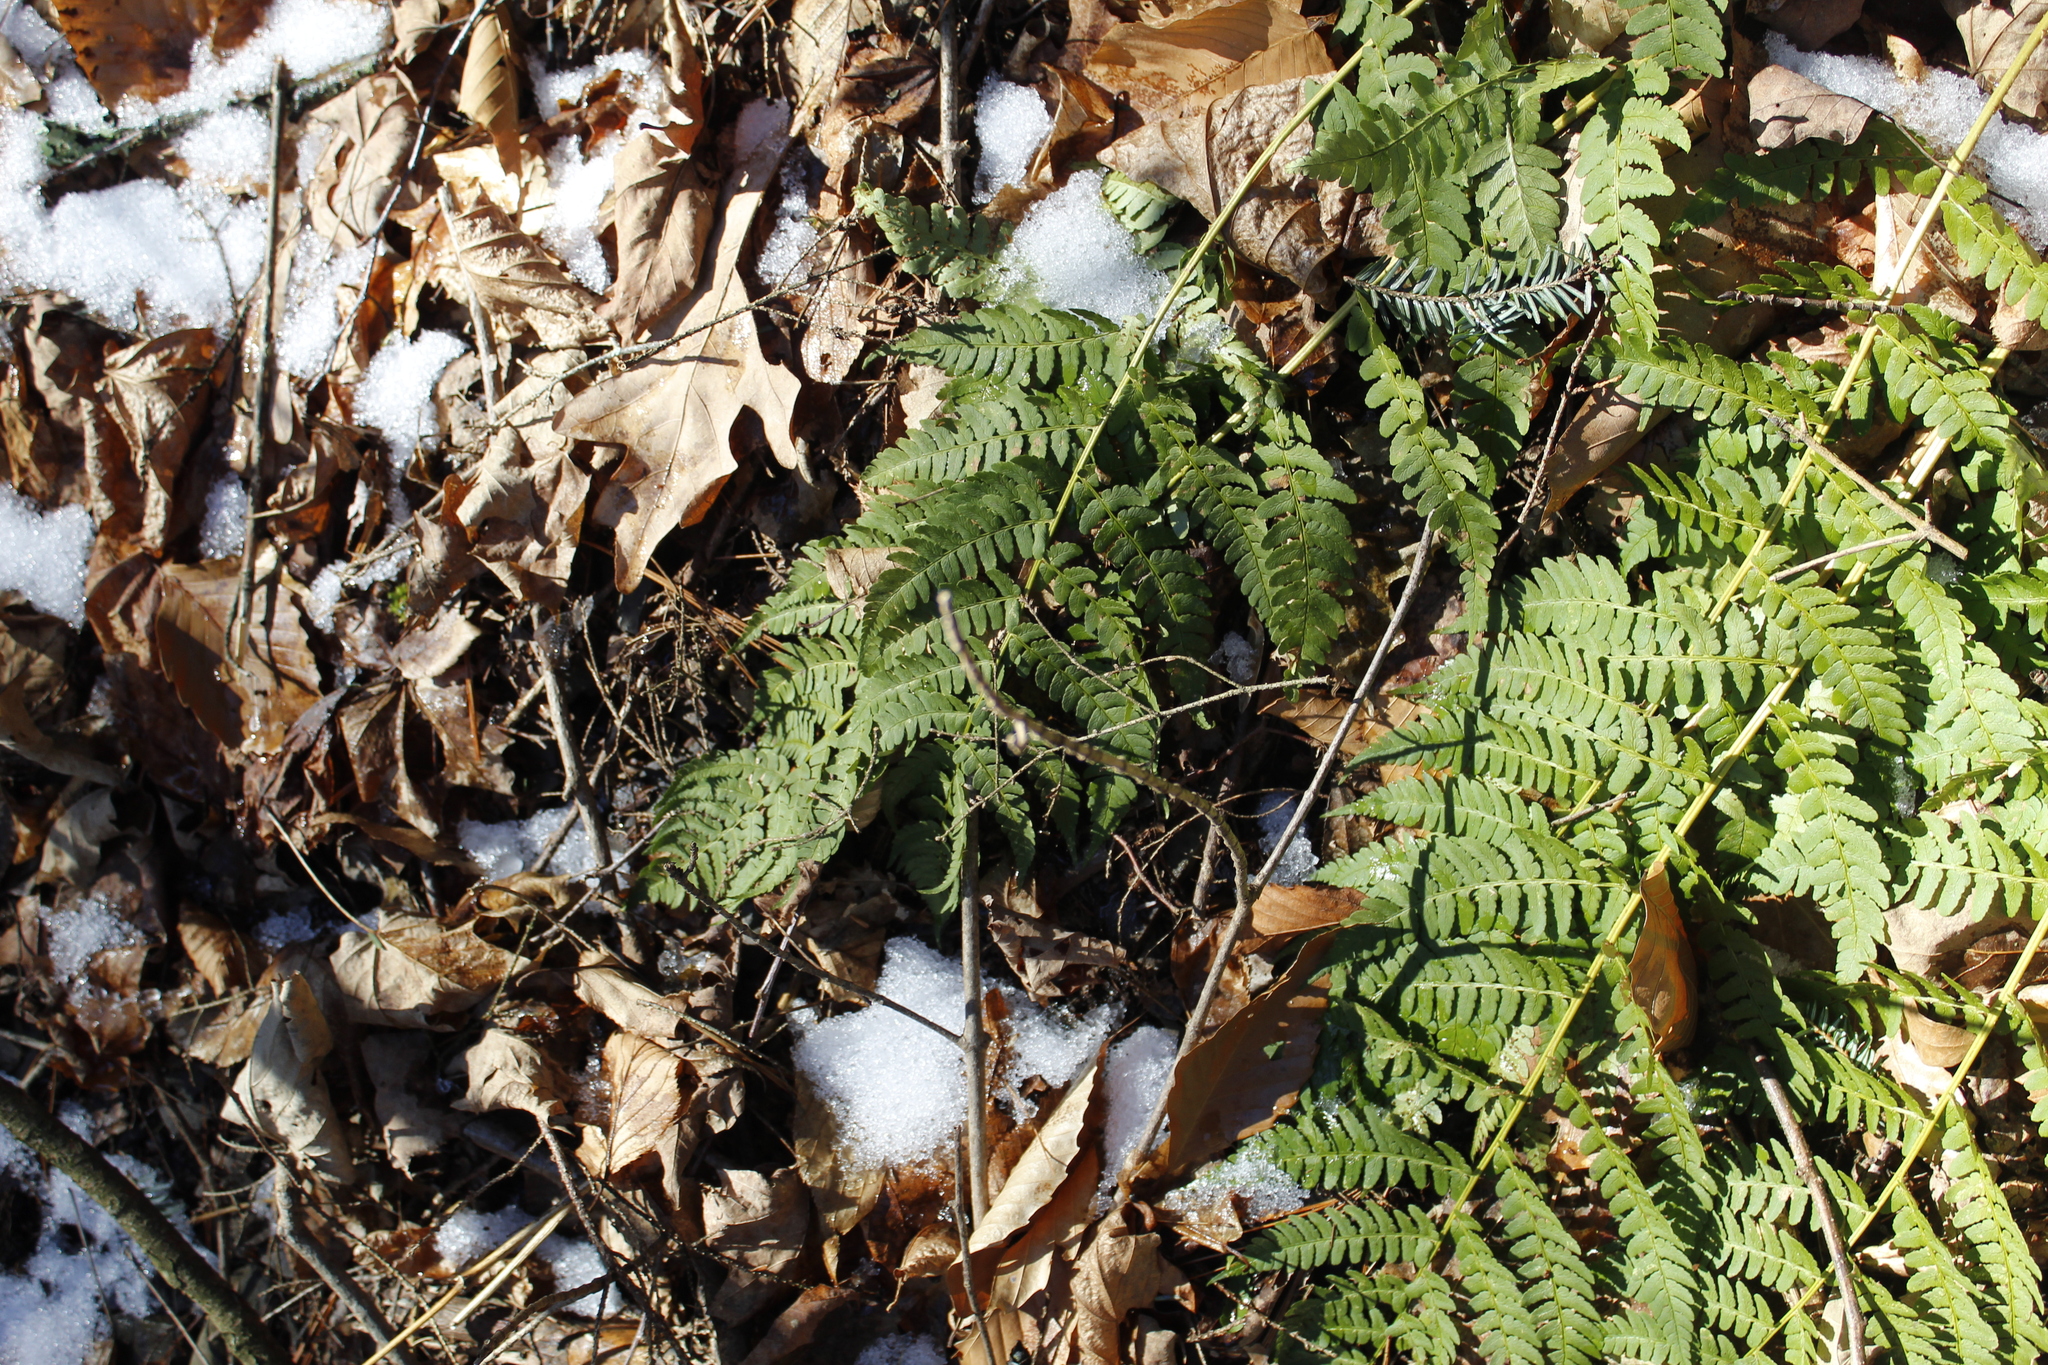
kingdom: Plantae
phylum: Tracheophyta
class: Polypodiopsida
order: Polypodiales
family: Dryopteridaceae
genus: Dryopteris
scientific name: Dryopteris marginalis
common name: Marginal wood fern
